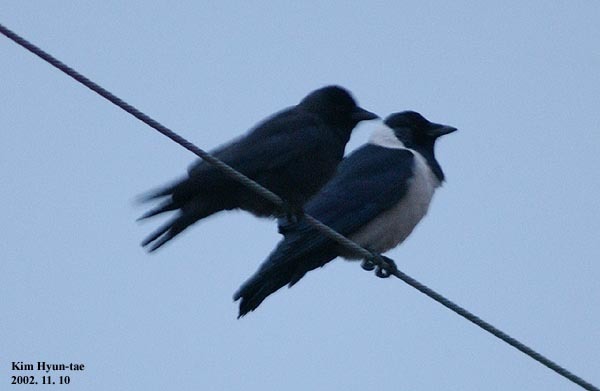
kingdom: Animalia
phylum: Chordata
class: Aves
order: Passeriformes
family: Corvidae
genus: Coloeus
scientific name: Coloeus dauuricus
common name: Daurian jackdaw
